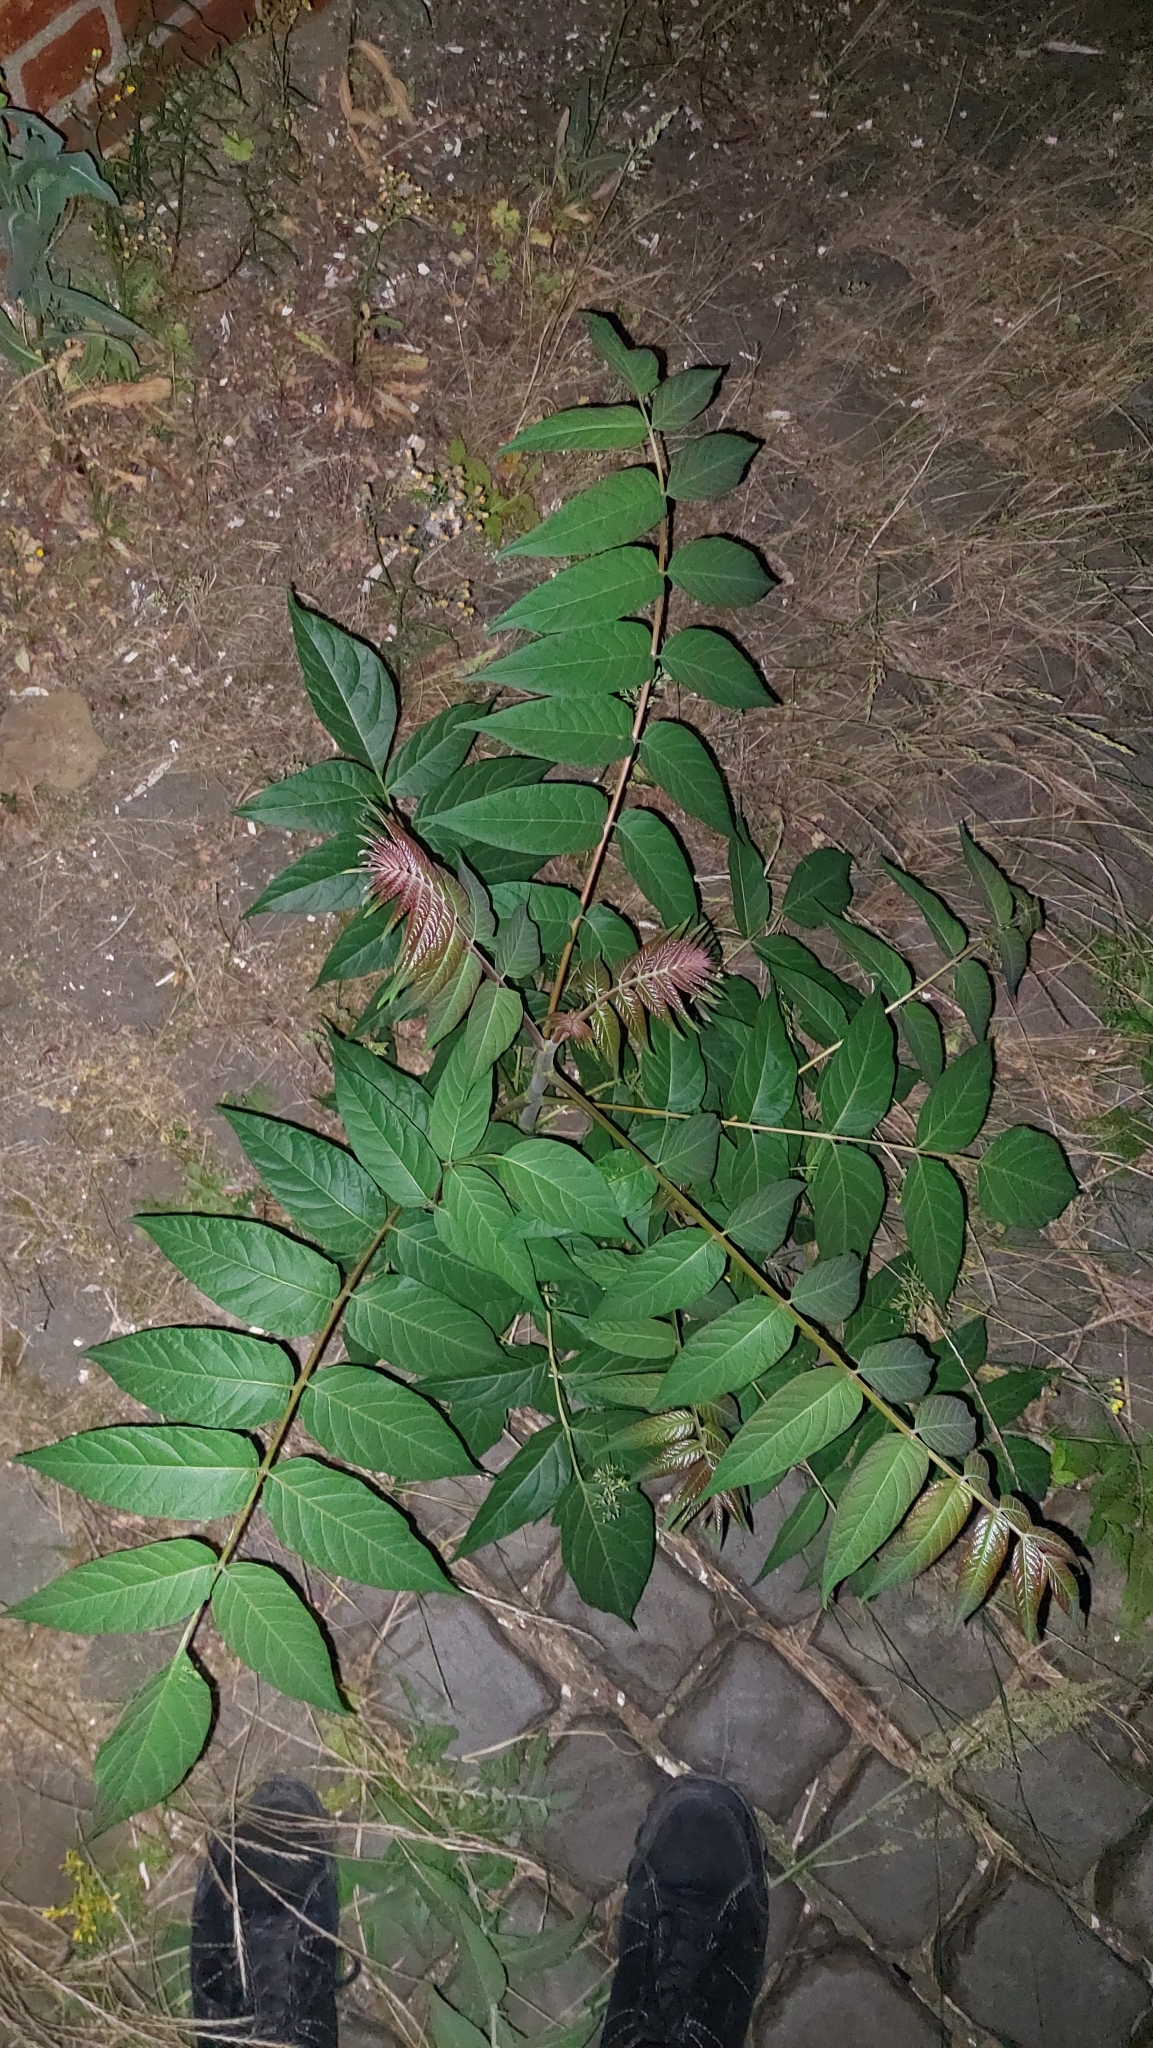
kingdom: Plantae
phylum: Tracheophyta
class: Magnoliopsida
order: Sapindales
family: Simaroubaceae
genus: Ailanthus
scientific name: Ailanthus altissima
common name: Tree-of-heaven
